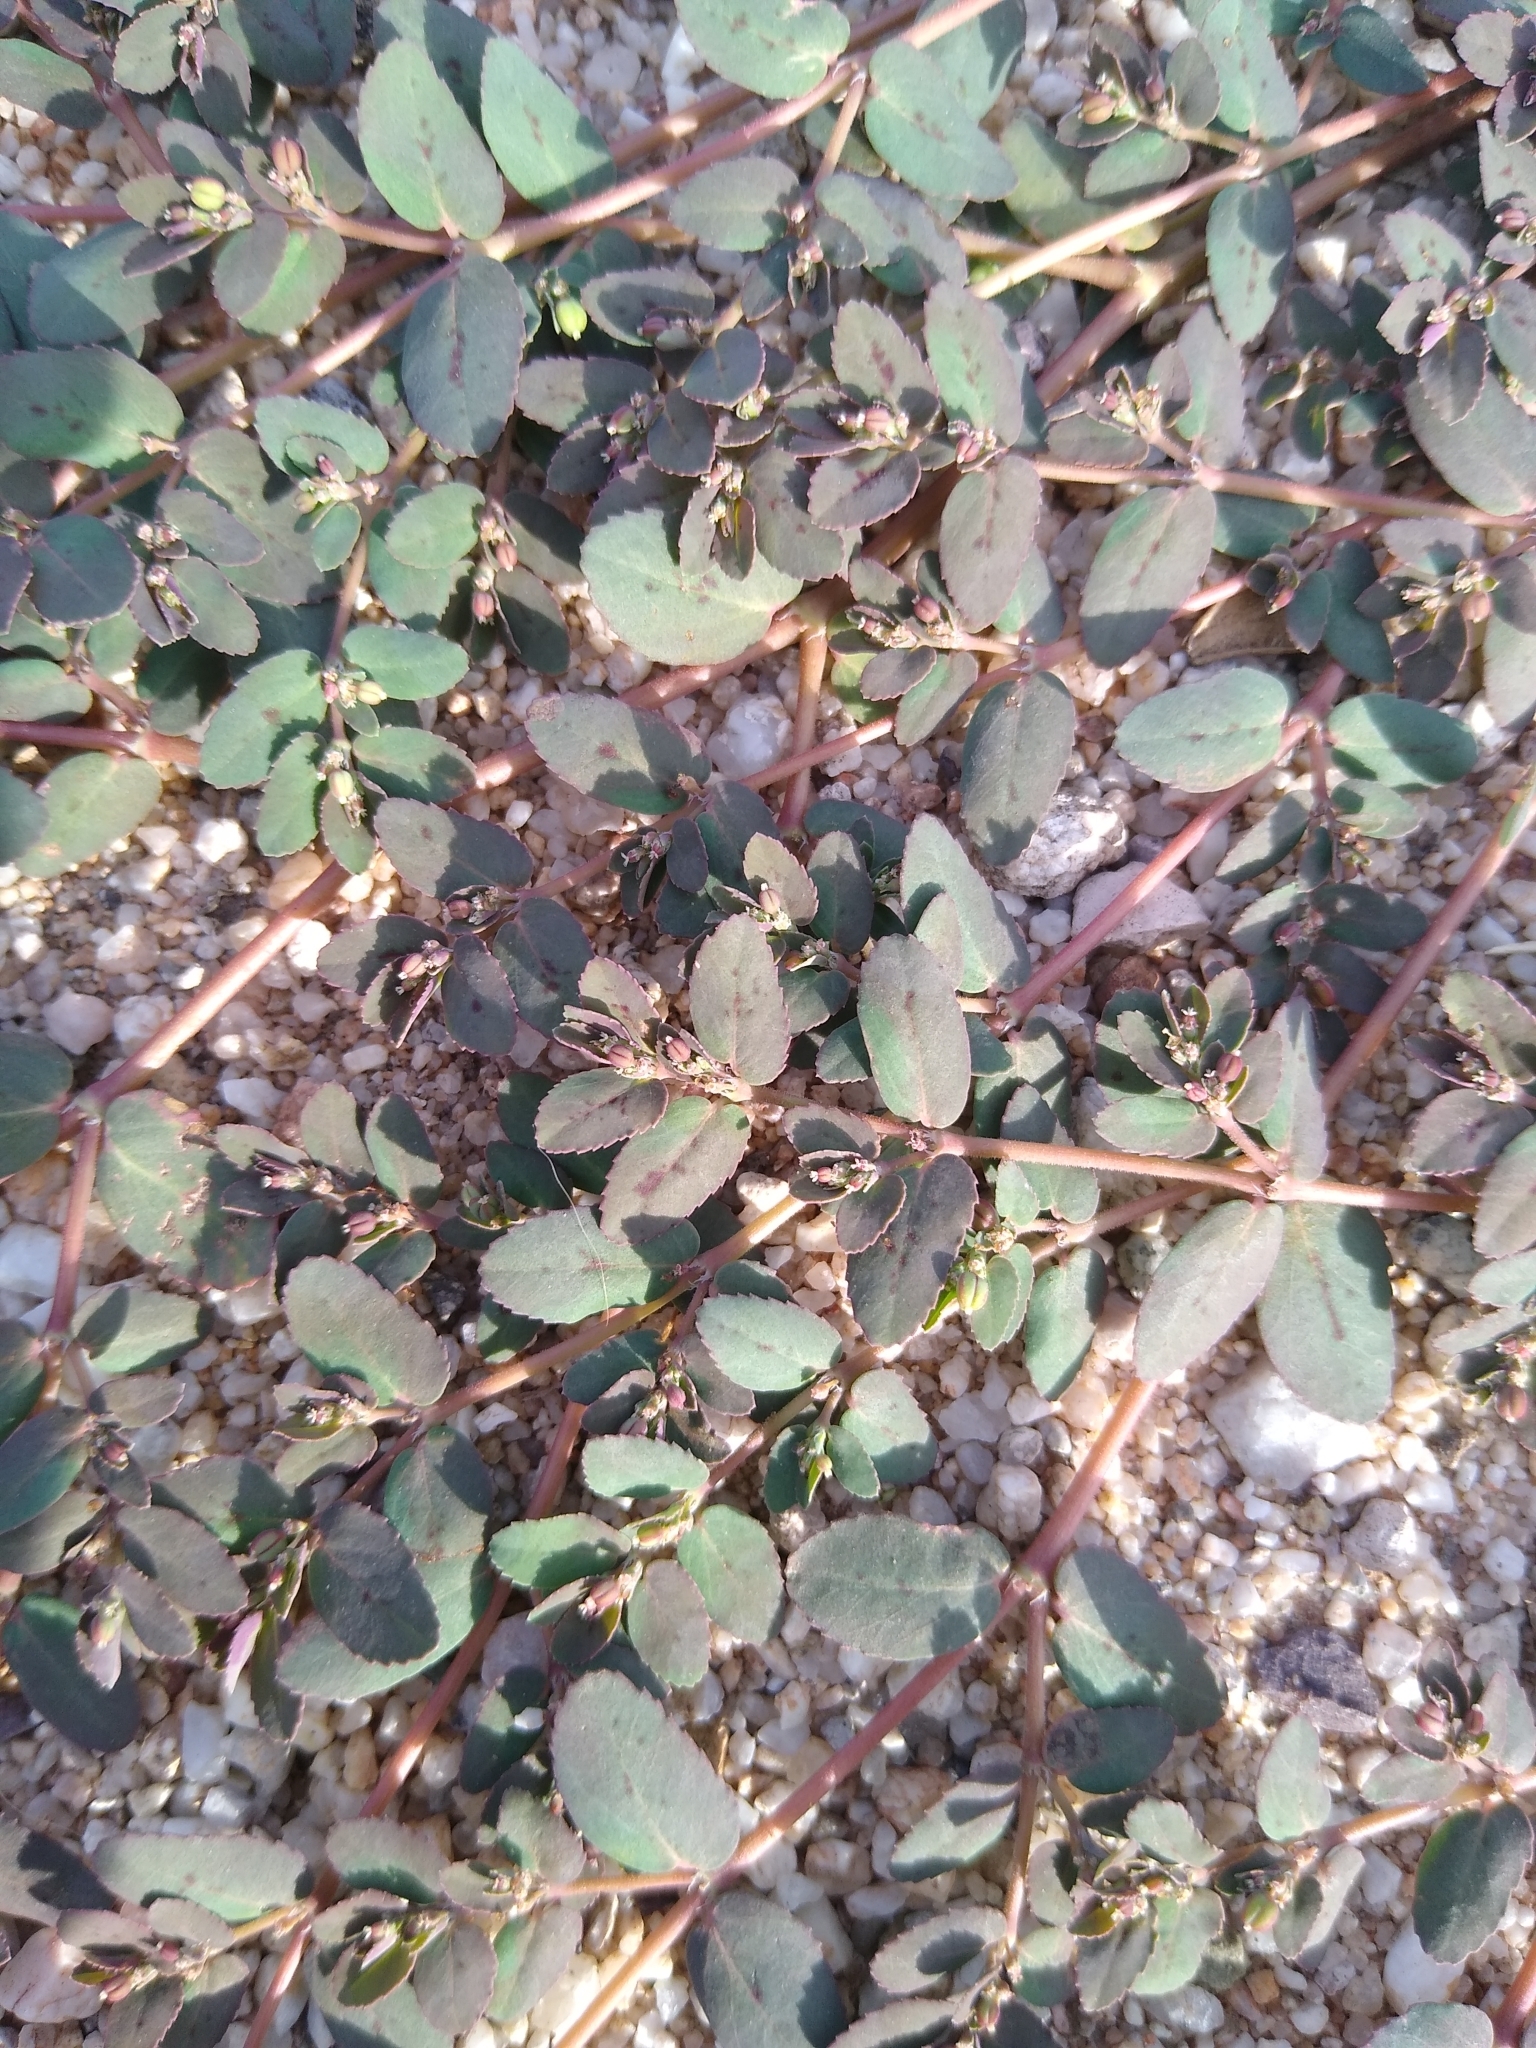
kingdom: Plantae
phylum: Tracheophyta
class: Magnoliopsida
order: Malpighiales
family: Euphorbiaceae
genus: Euphorbia
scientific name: Euphorbia abramsiana
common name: Abram's spurge
